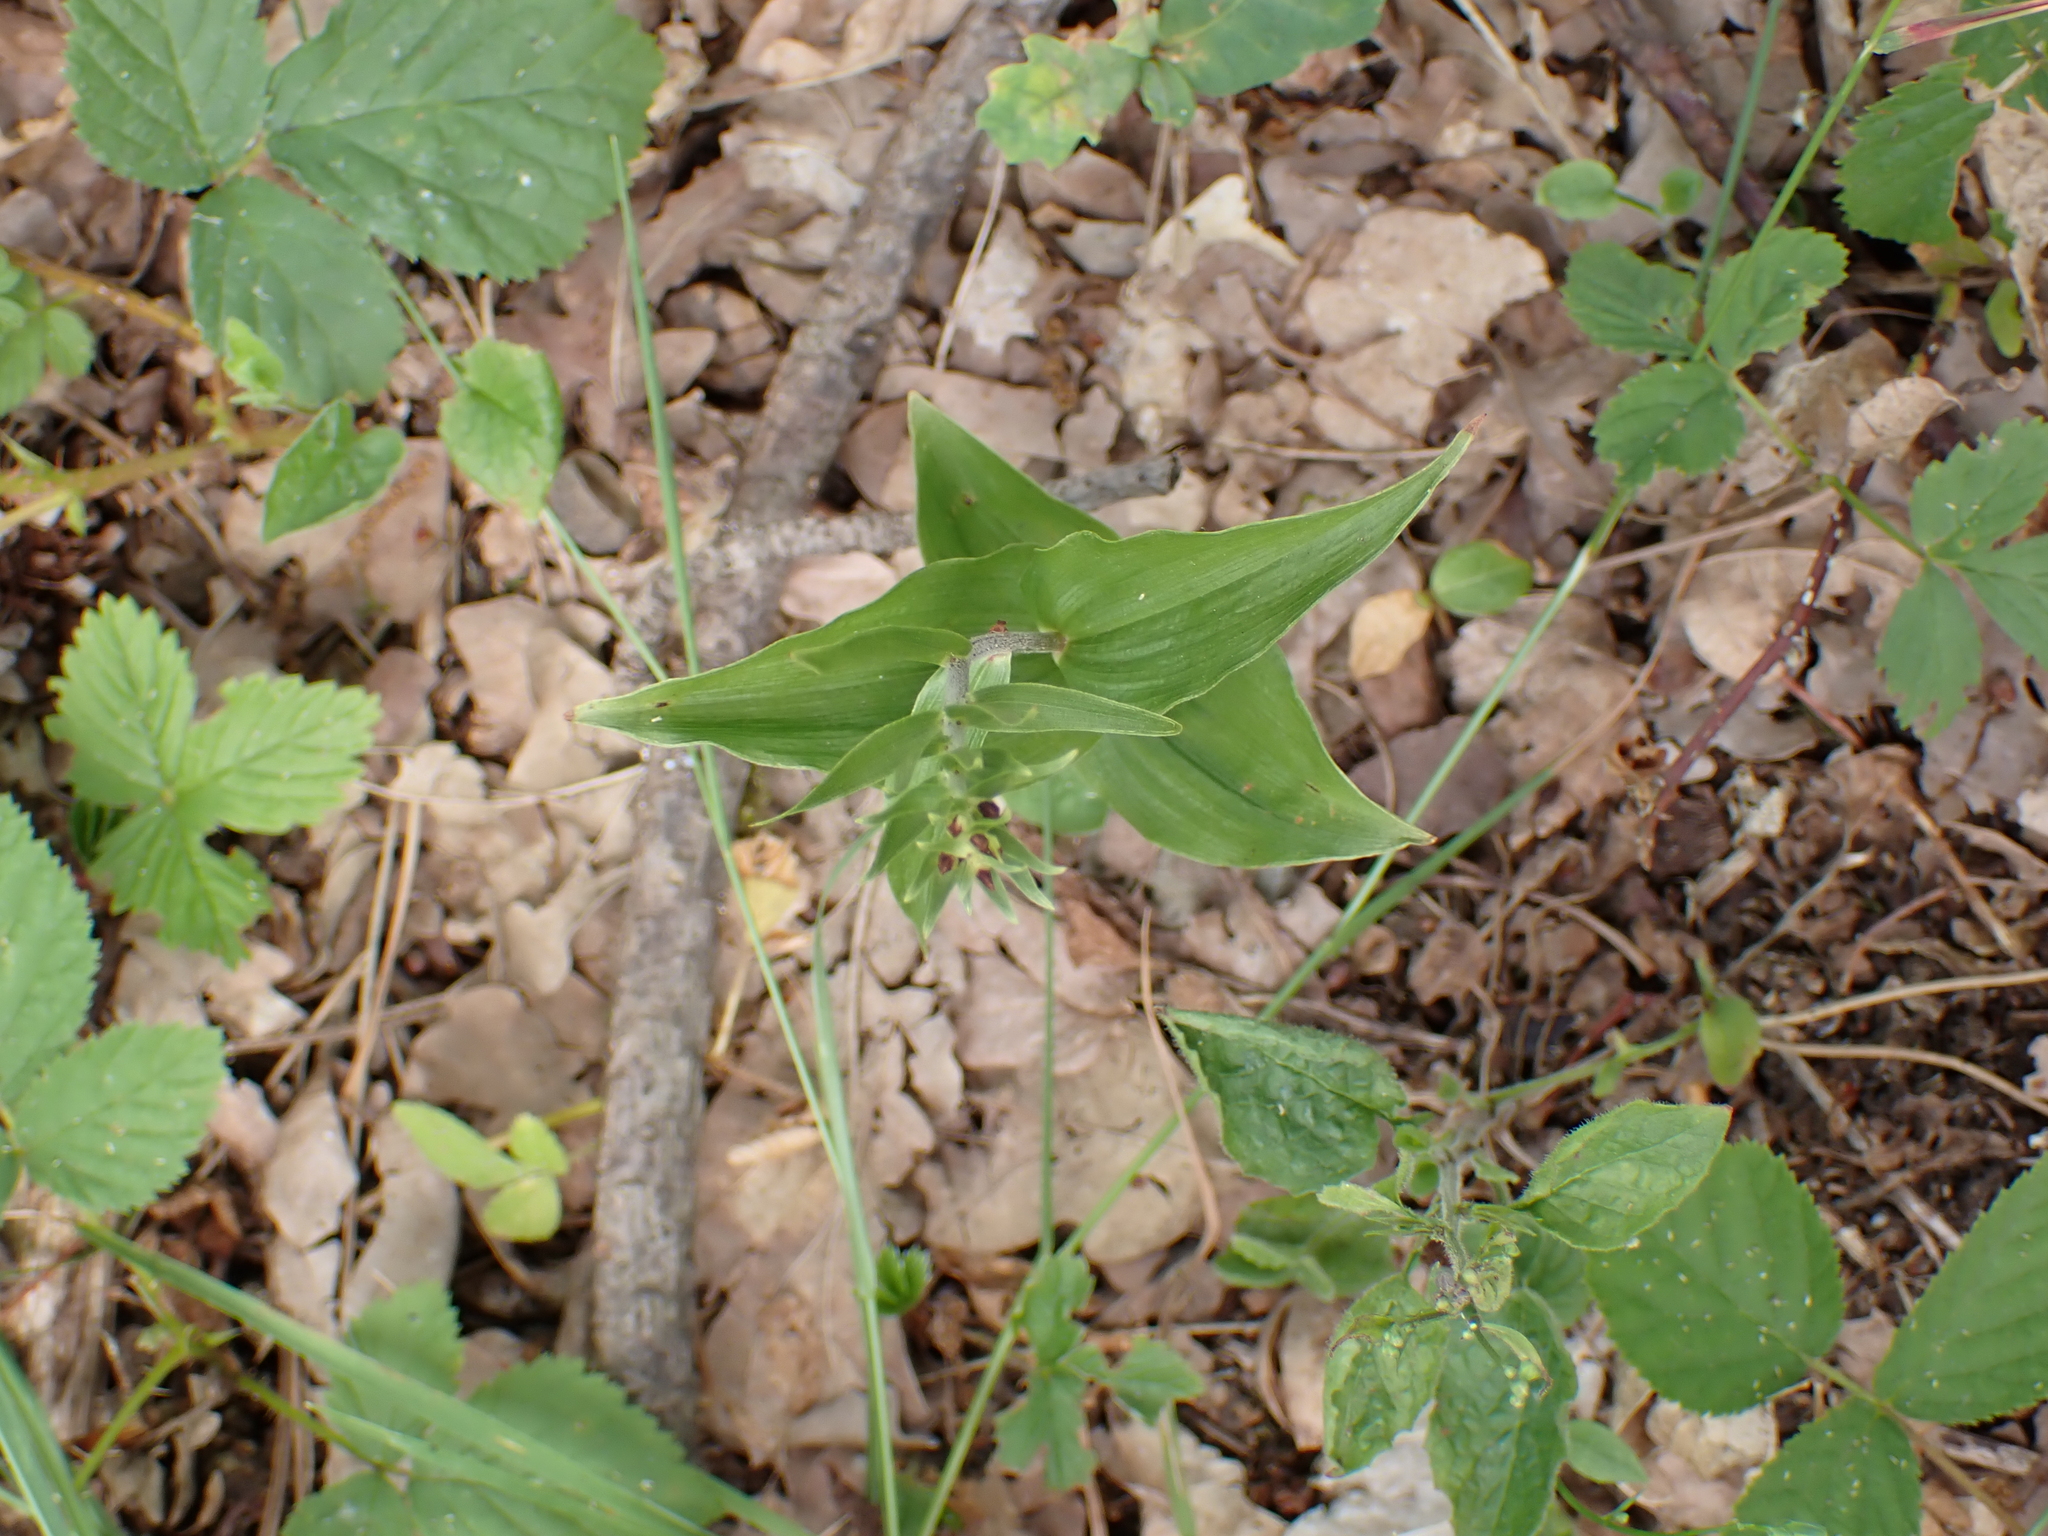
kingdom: Plantae
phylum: Tracheophyta
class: Liliopsida
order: Asparagales
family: Orchidaceae
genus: Epipactis
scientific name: Epipactis helleborine
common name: Broad-leaved helleborine
